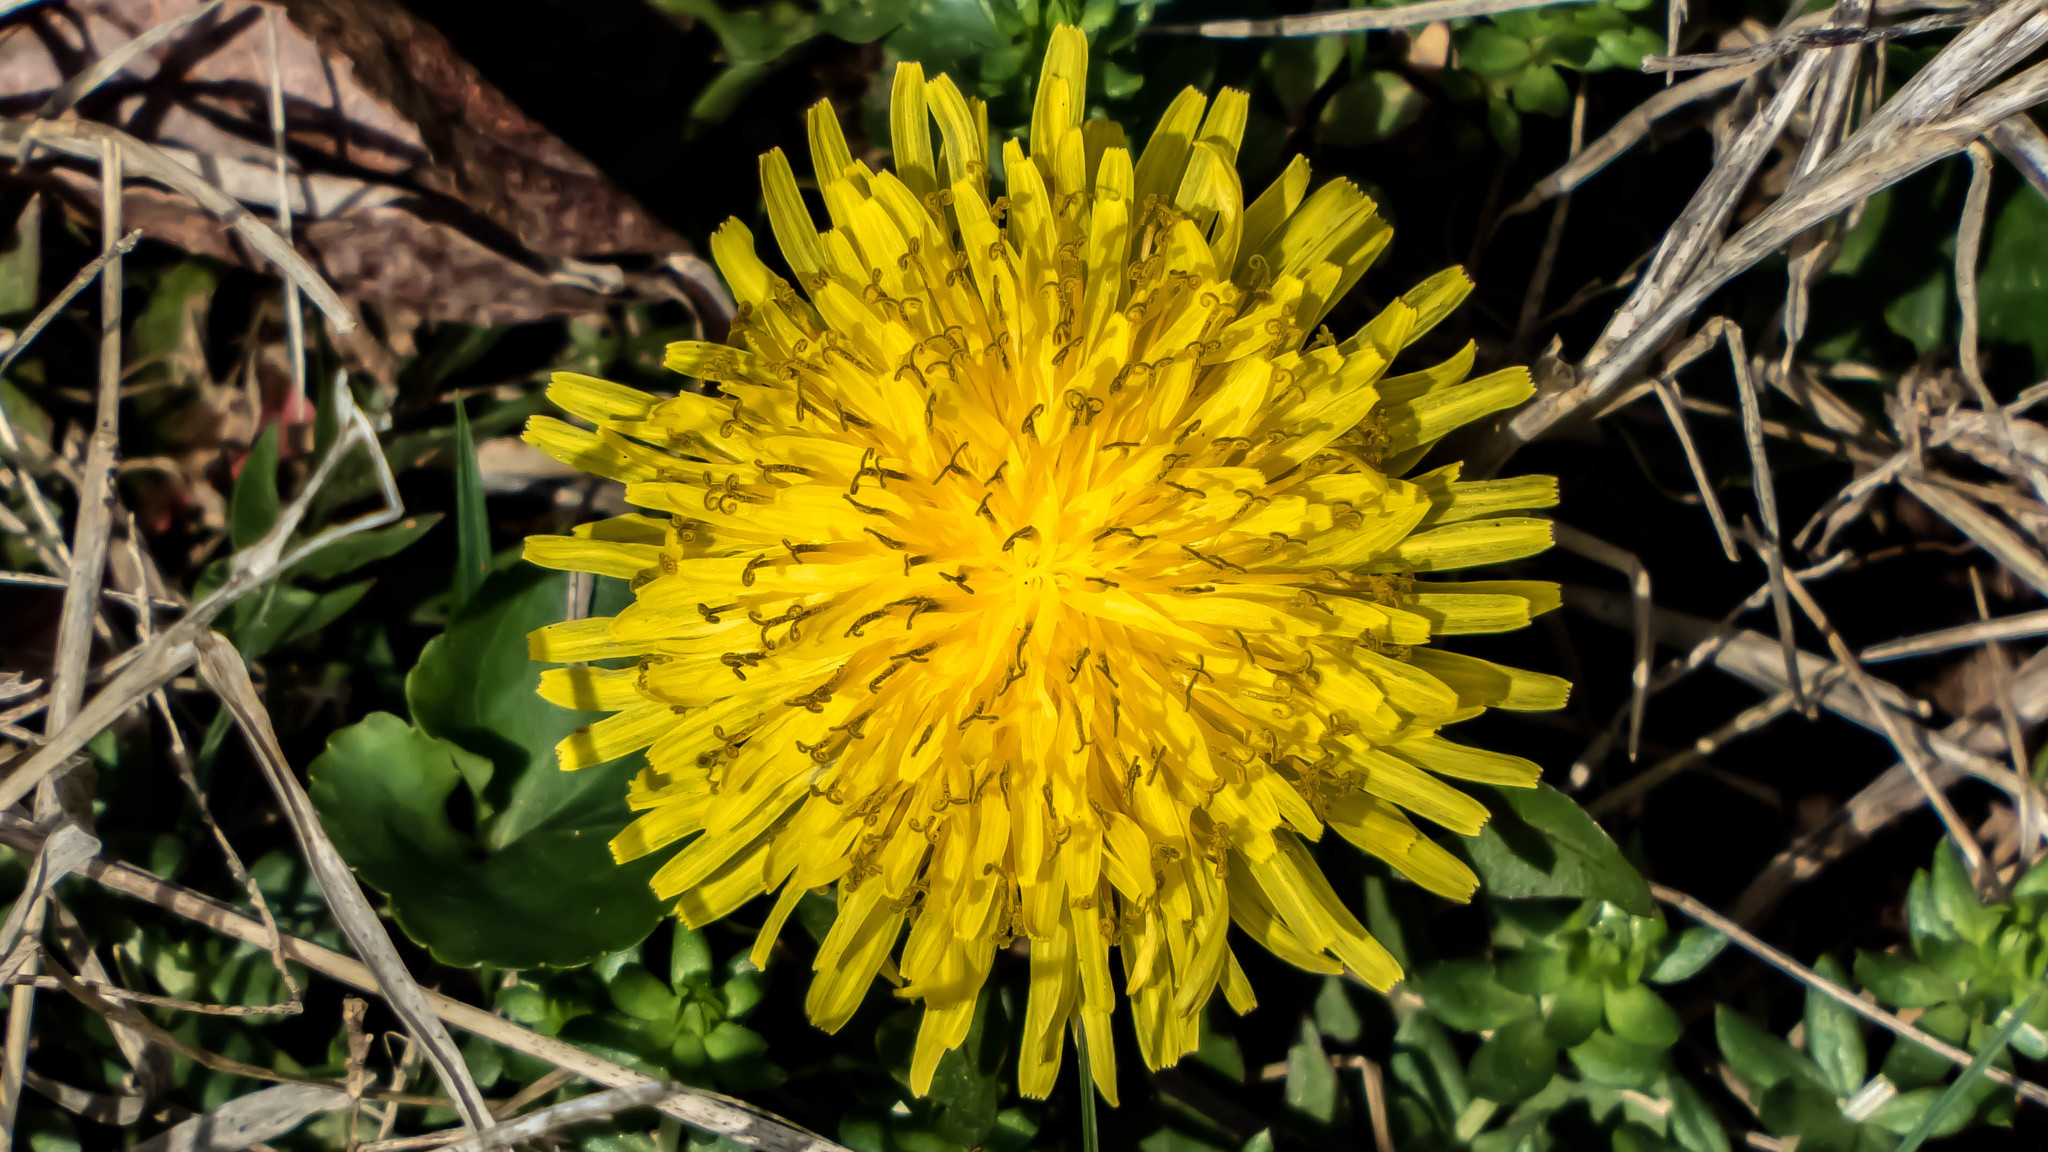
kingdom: Plantae
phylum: Tracheophyta
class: Magnoliopsida
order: Asterales
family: Asteraceae
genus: Taraxacum
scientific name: Taraxacum officinale
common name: Common dandelion
